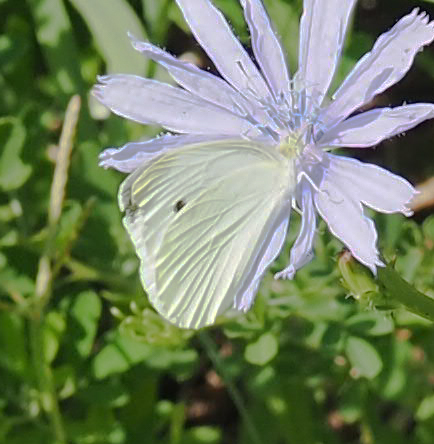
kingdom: Animalia
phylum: Arthropoda
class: Insecta
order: Lepidoptera
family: Pieridae
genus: Pieris
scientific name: Pieris rapae
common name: Small white
